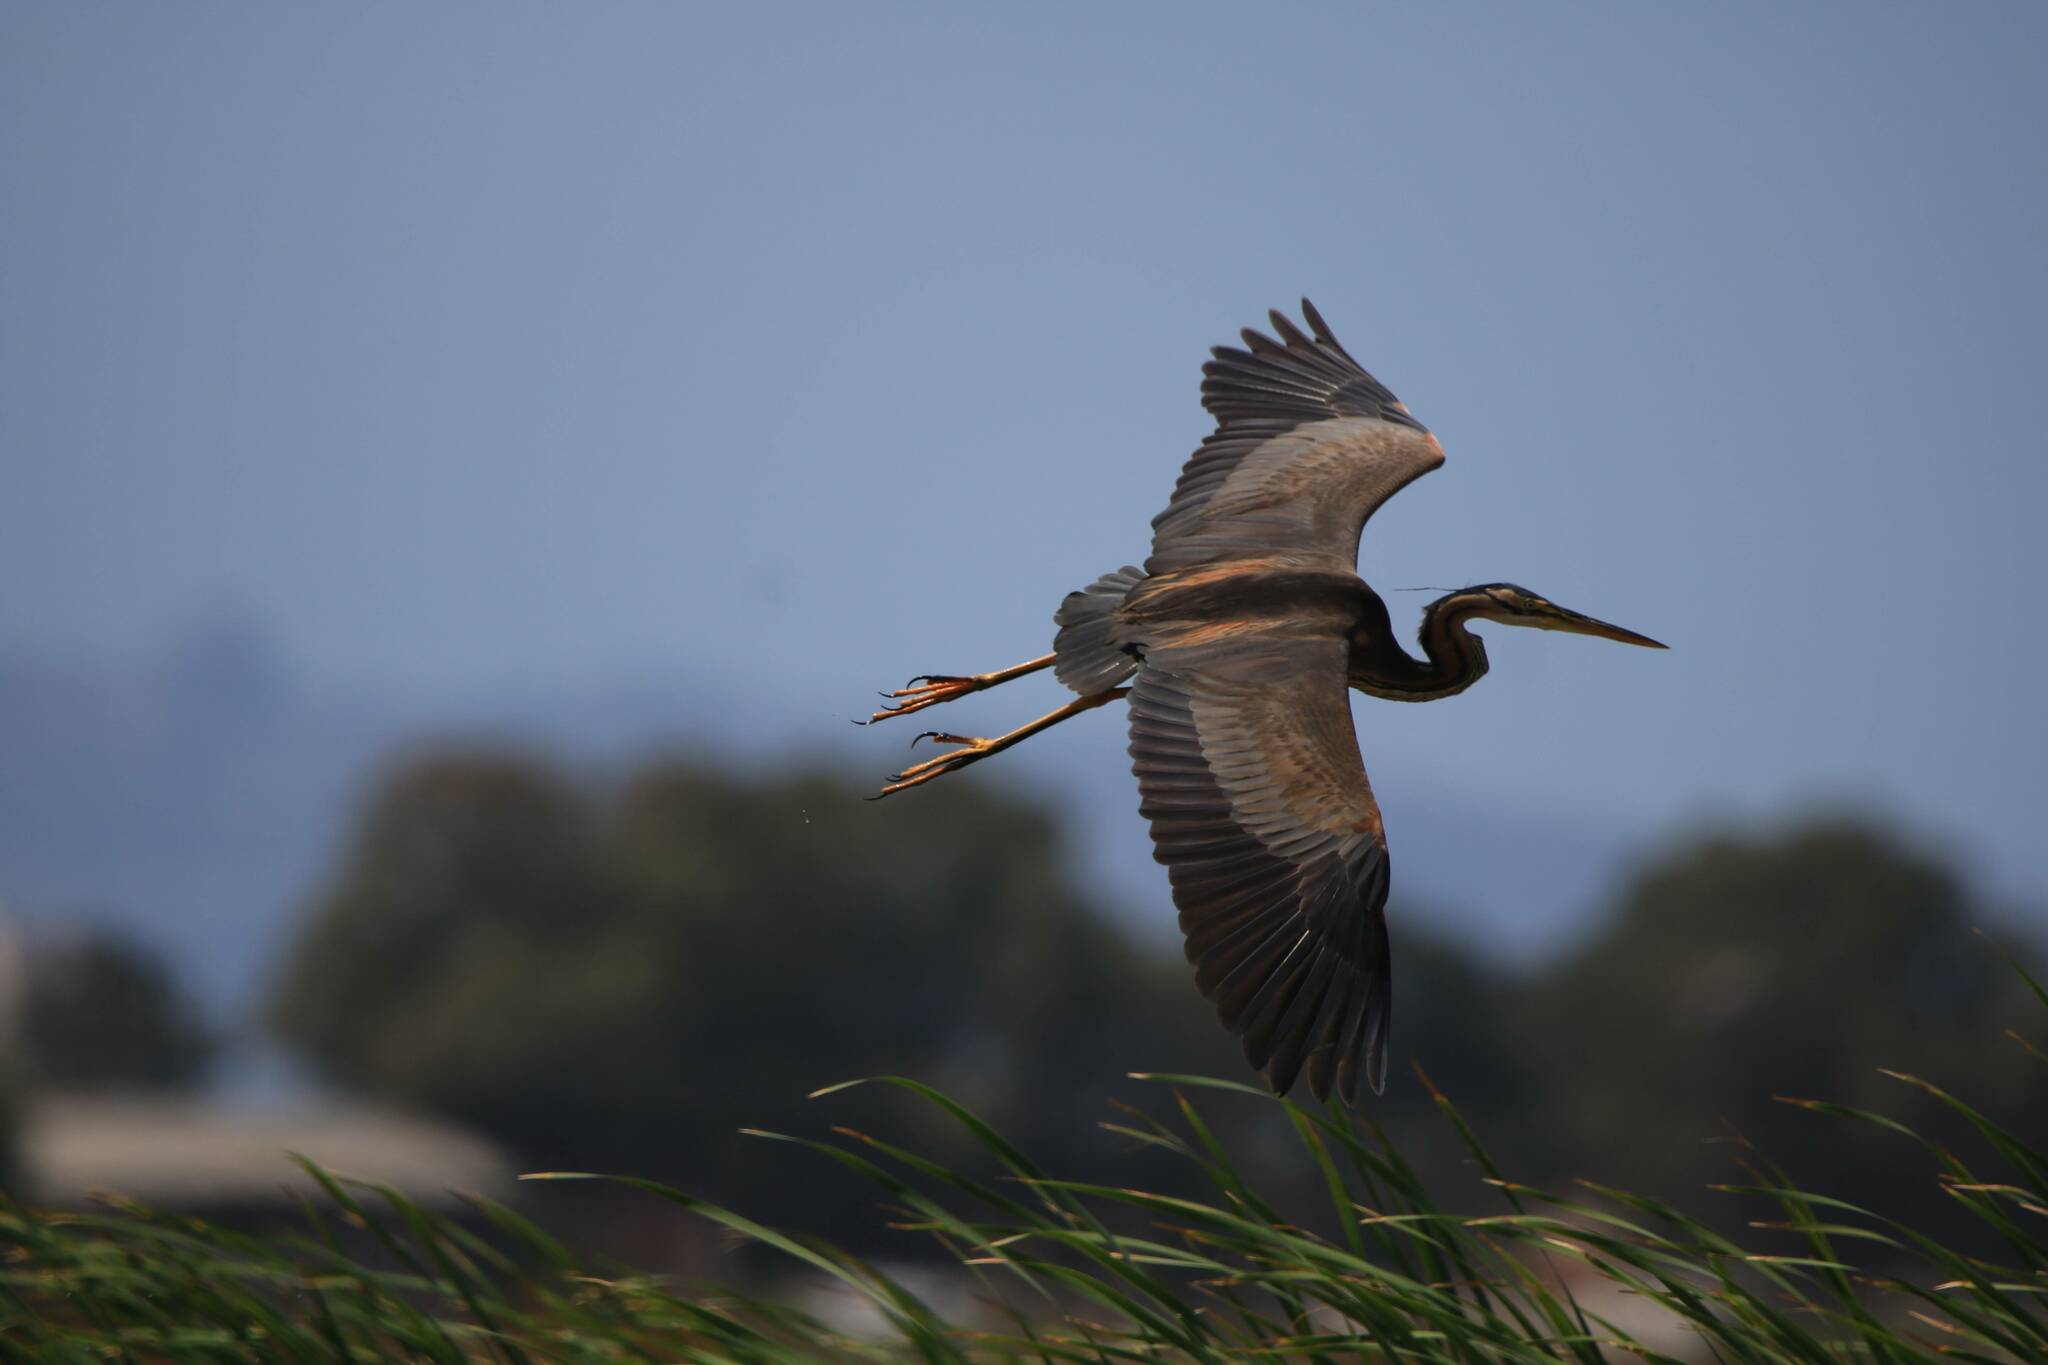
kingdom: Animalia
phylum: Chordata
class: Aves
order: Pelecaniformes
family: Ardeidae
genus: Ardea
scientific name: Ardea purpurea
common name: Purple heron
